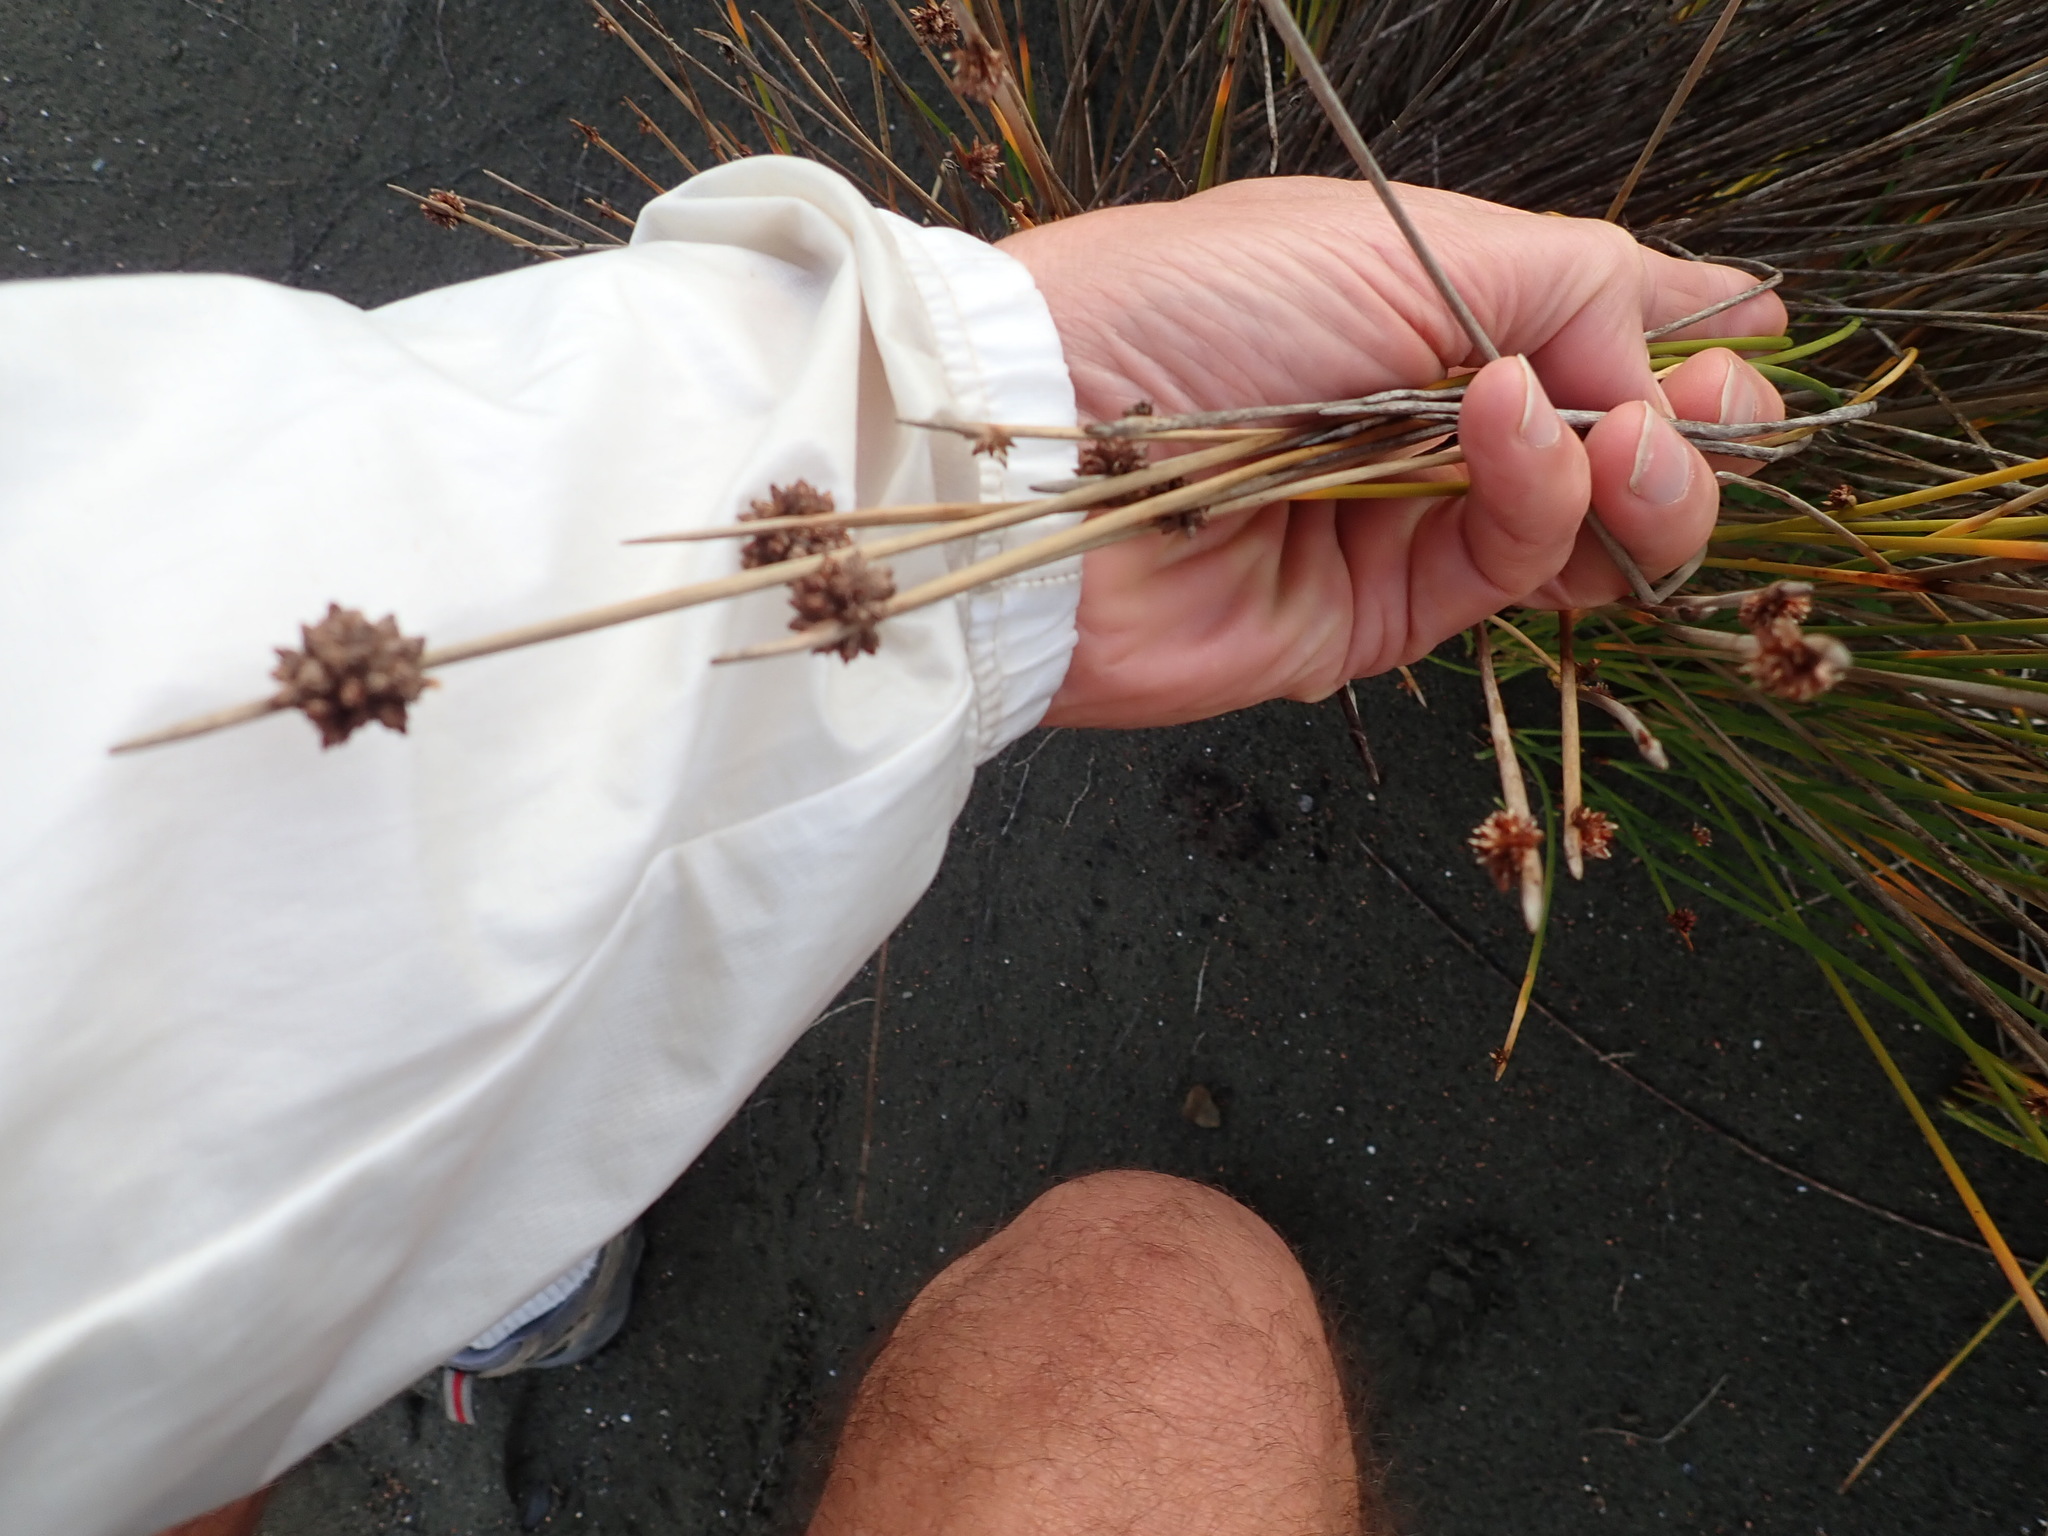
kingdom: Plantae
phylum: Tracheophyta
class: Liliopsida
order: Poales
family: Cyperaceae
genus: Ficinia
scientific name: Ficinia nodosa
